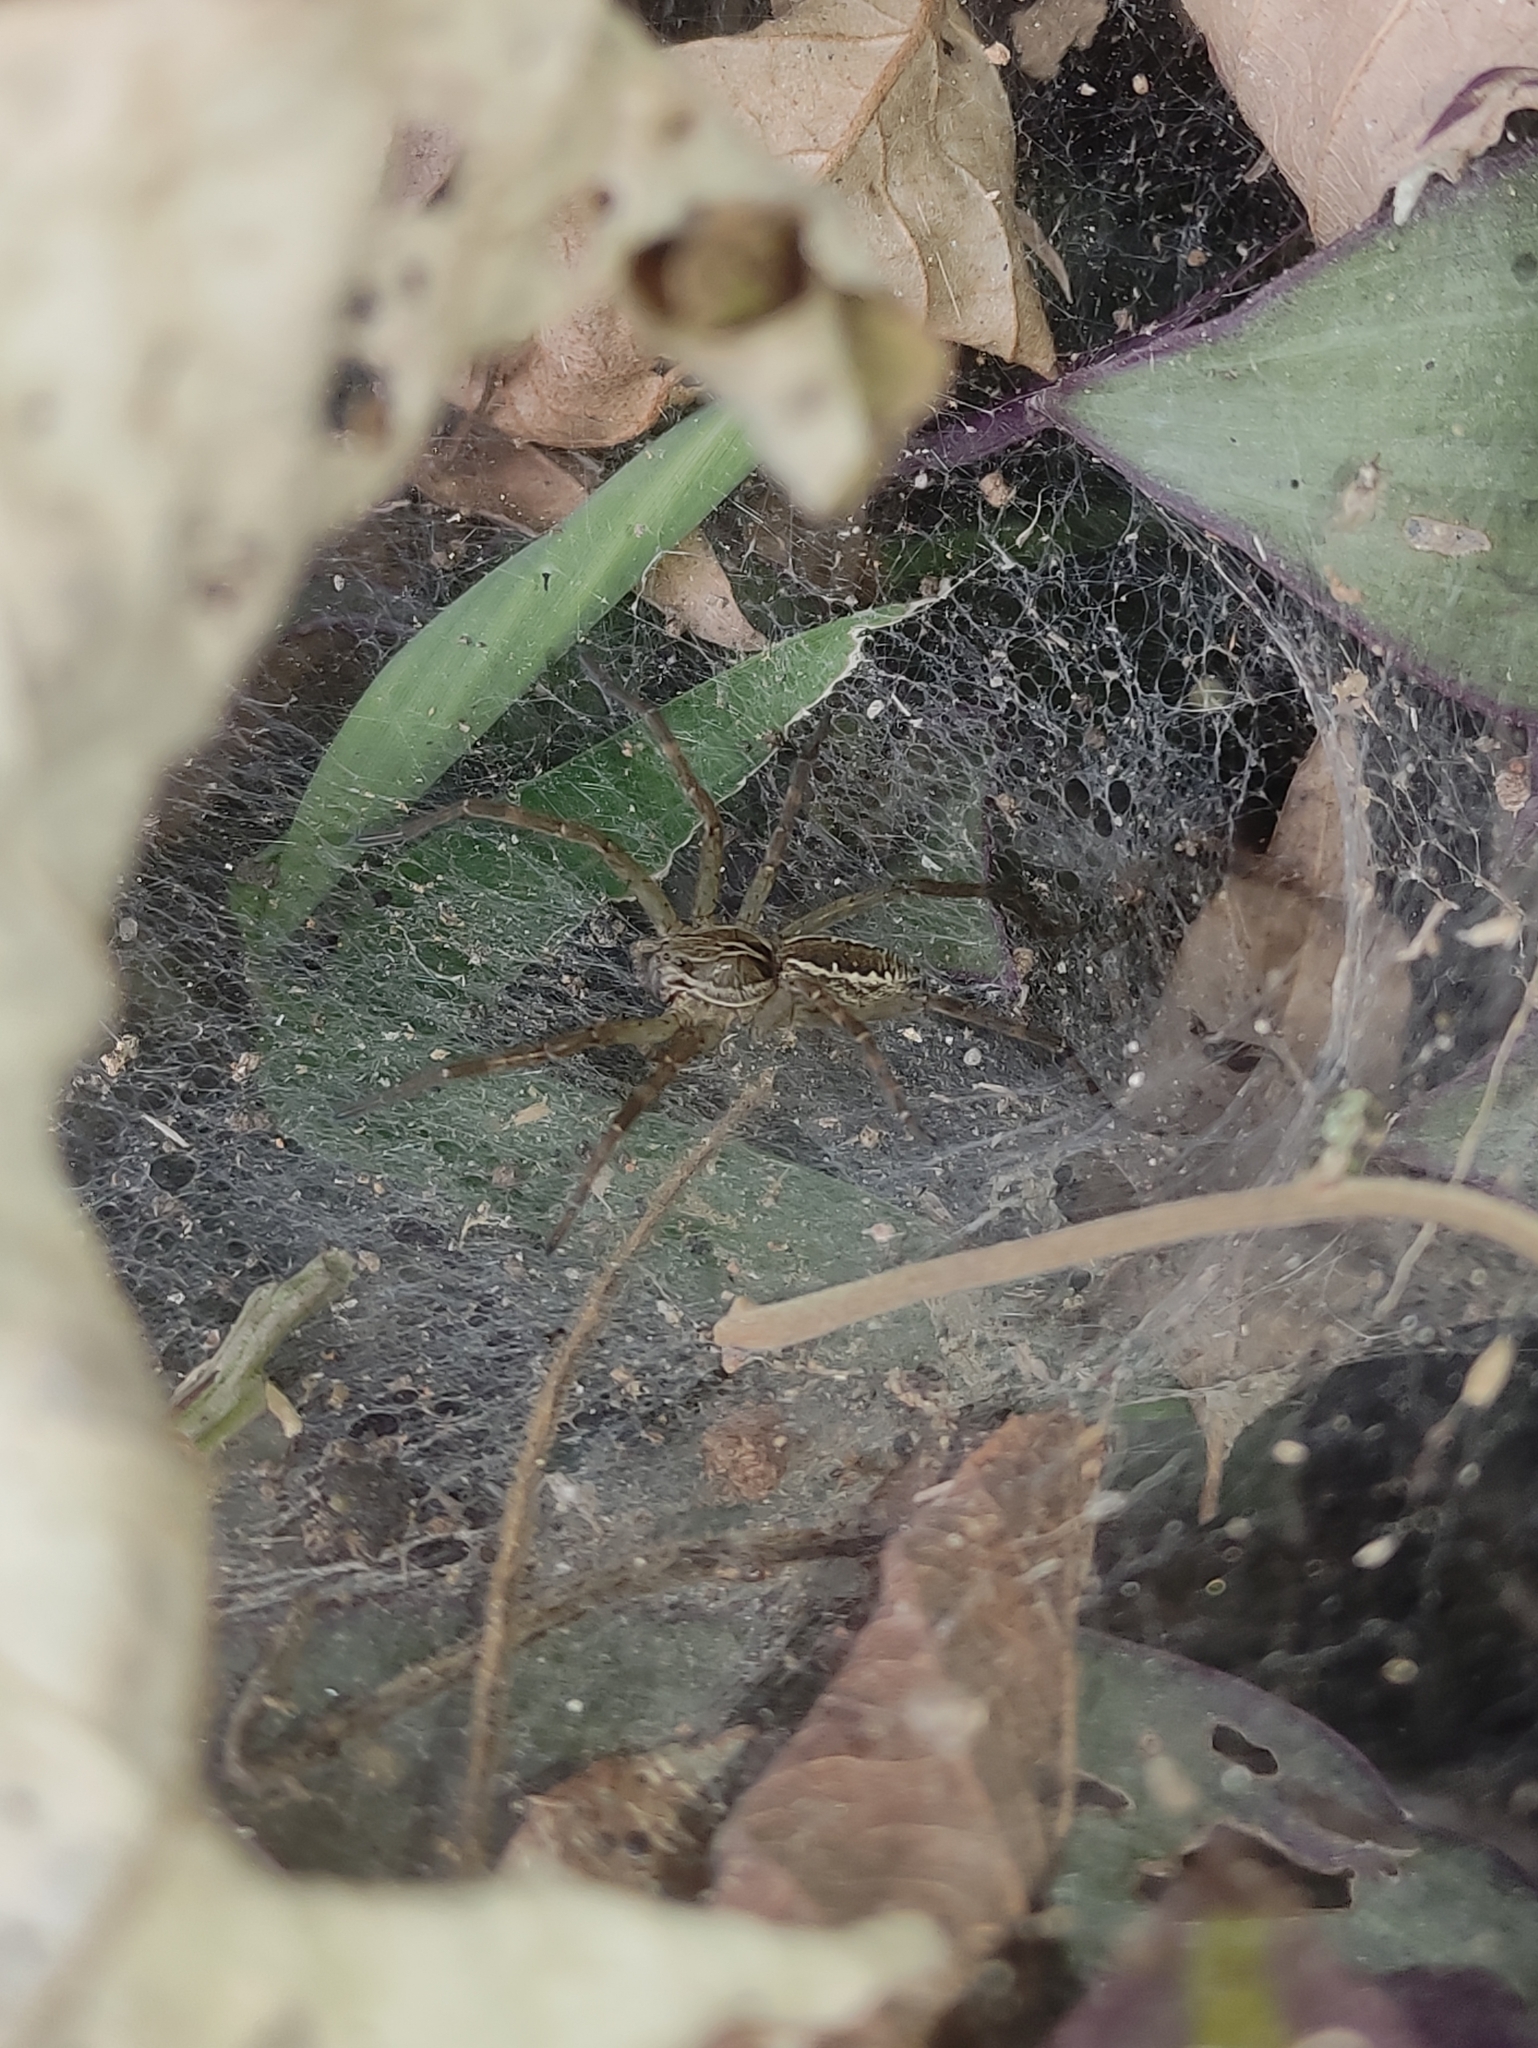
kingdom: Animalia
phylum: Arthropoda
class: Arachnida
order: Araneae
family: Lycosidae
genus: Aglaoctenus
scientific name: Aglaoctenus lagotis
